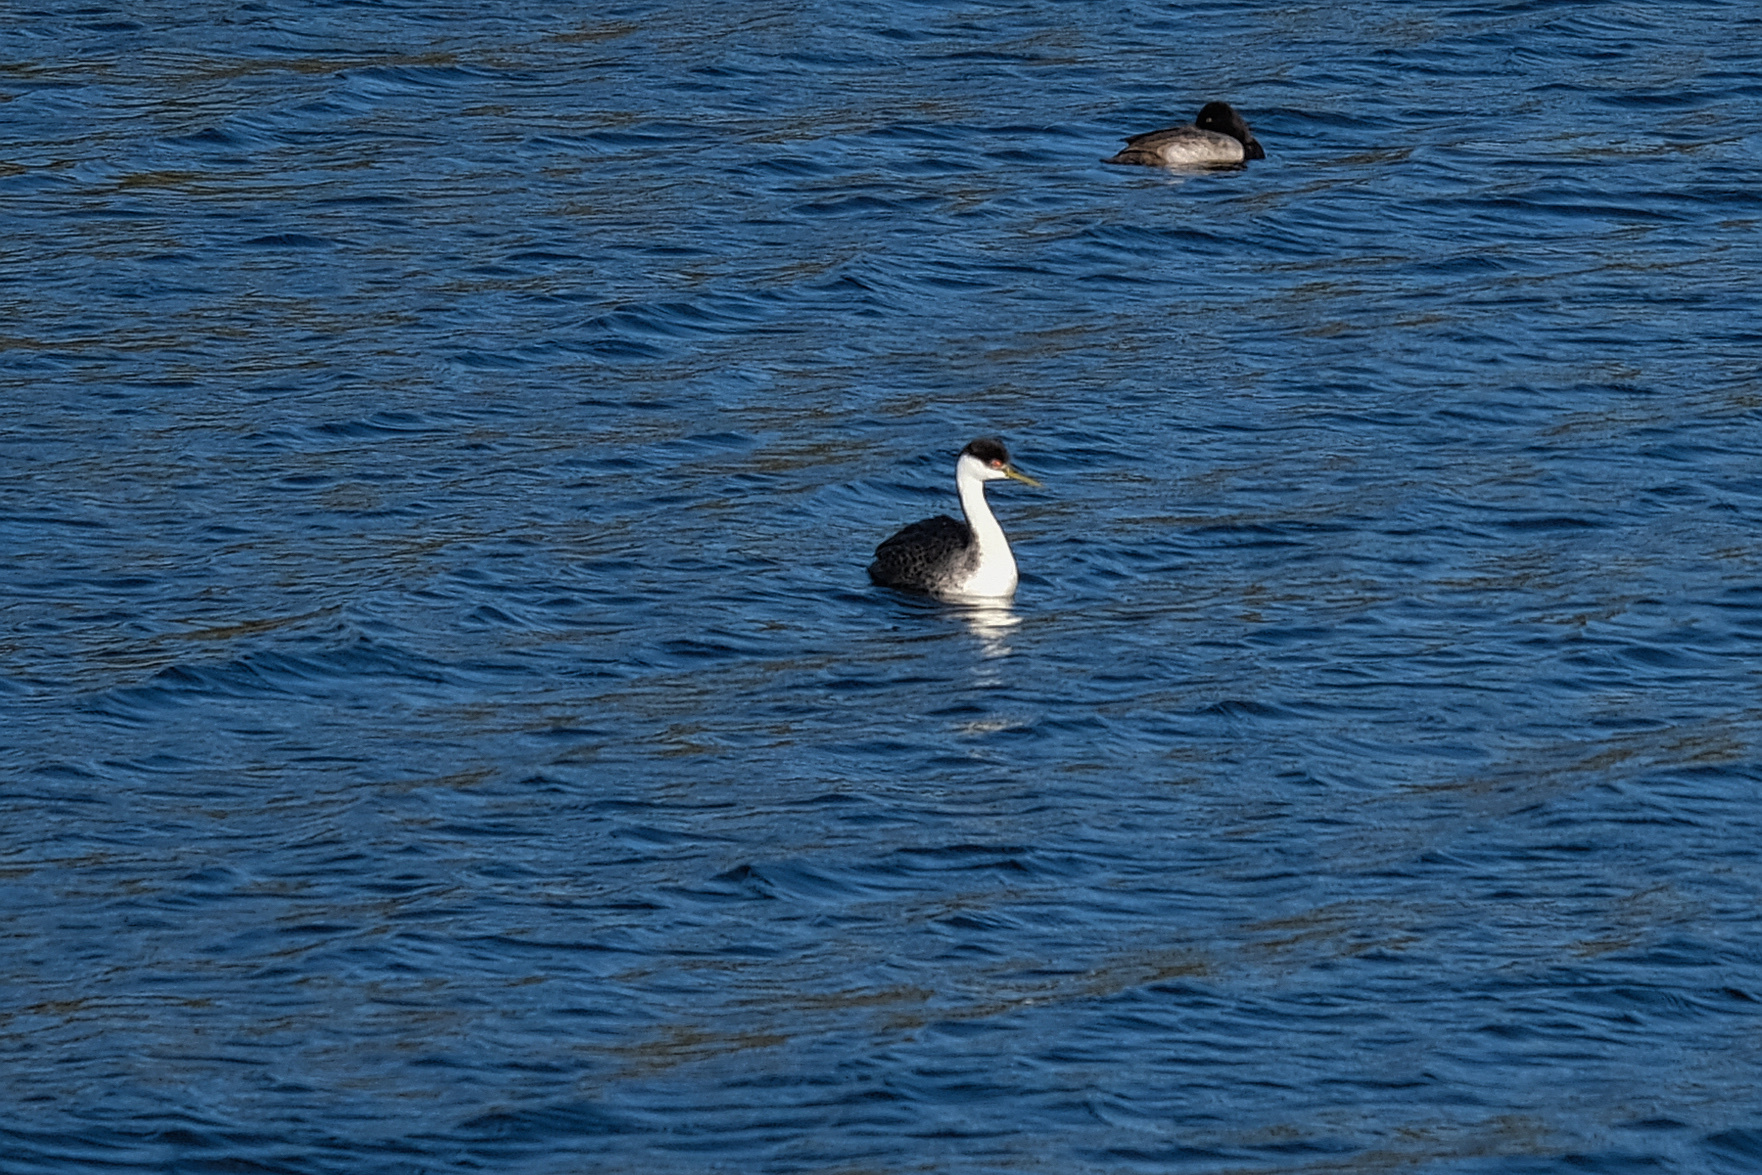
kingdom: Animalia
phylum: Chordata
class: Aves
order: Podicipediformes
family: Podicipedidae
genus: Aechmophorus
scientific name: Aechmophorus occidentalis
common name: Western grebe
